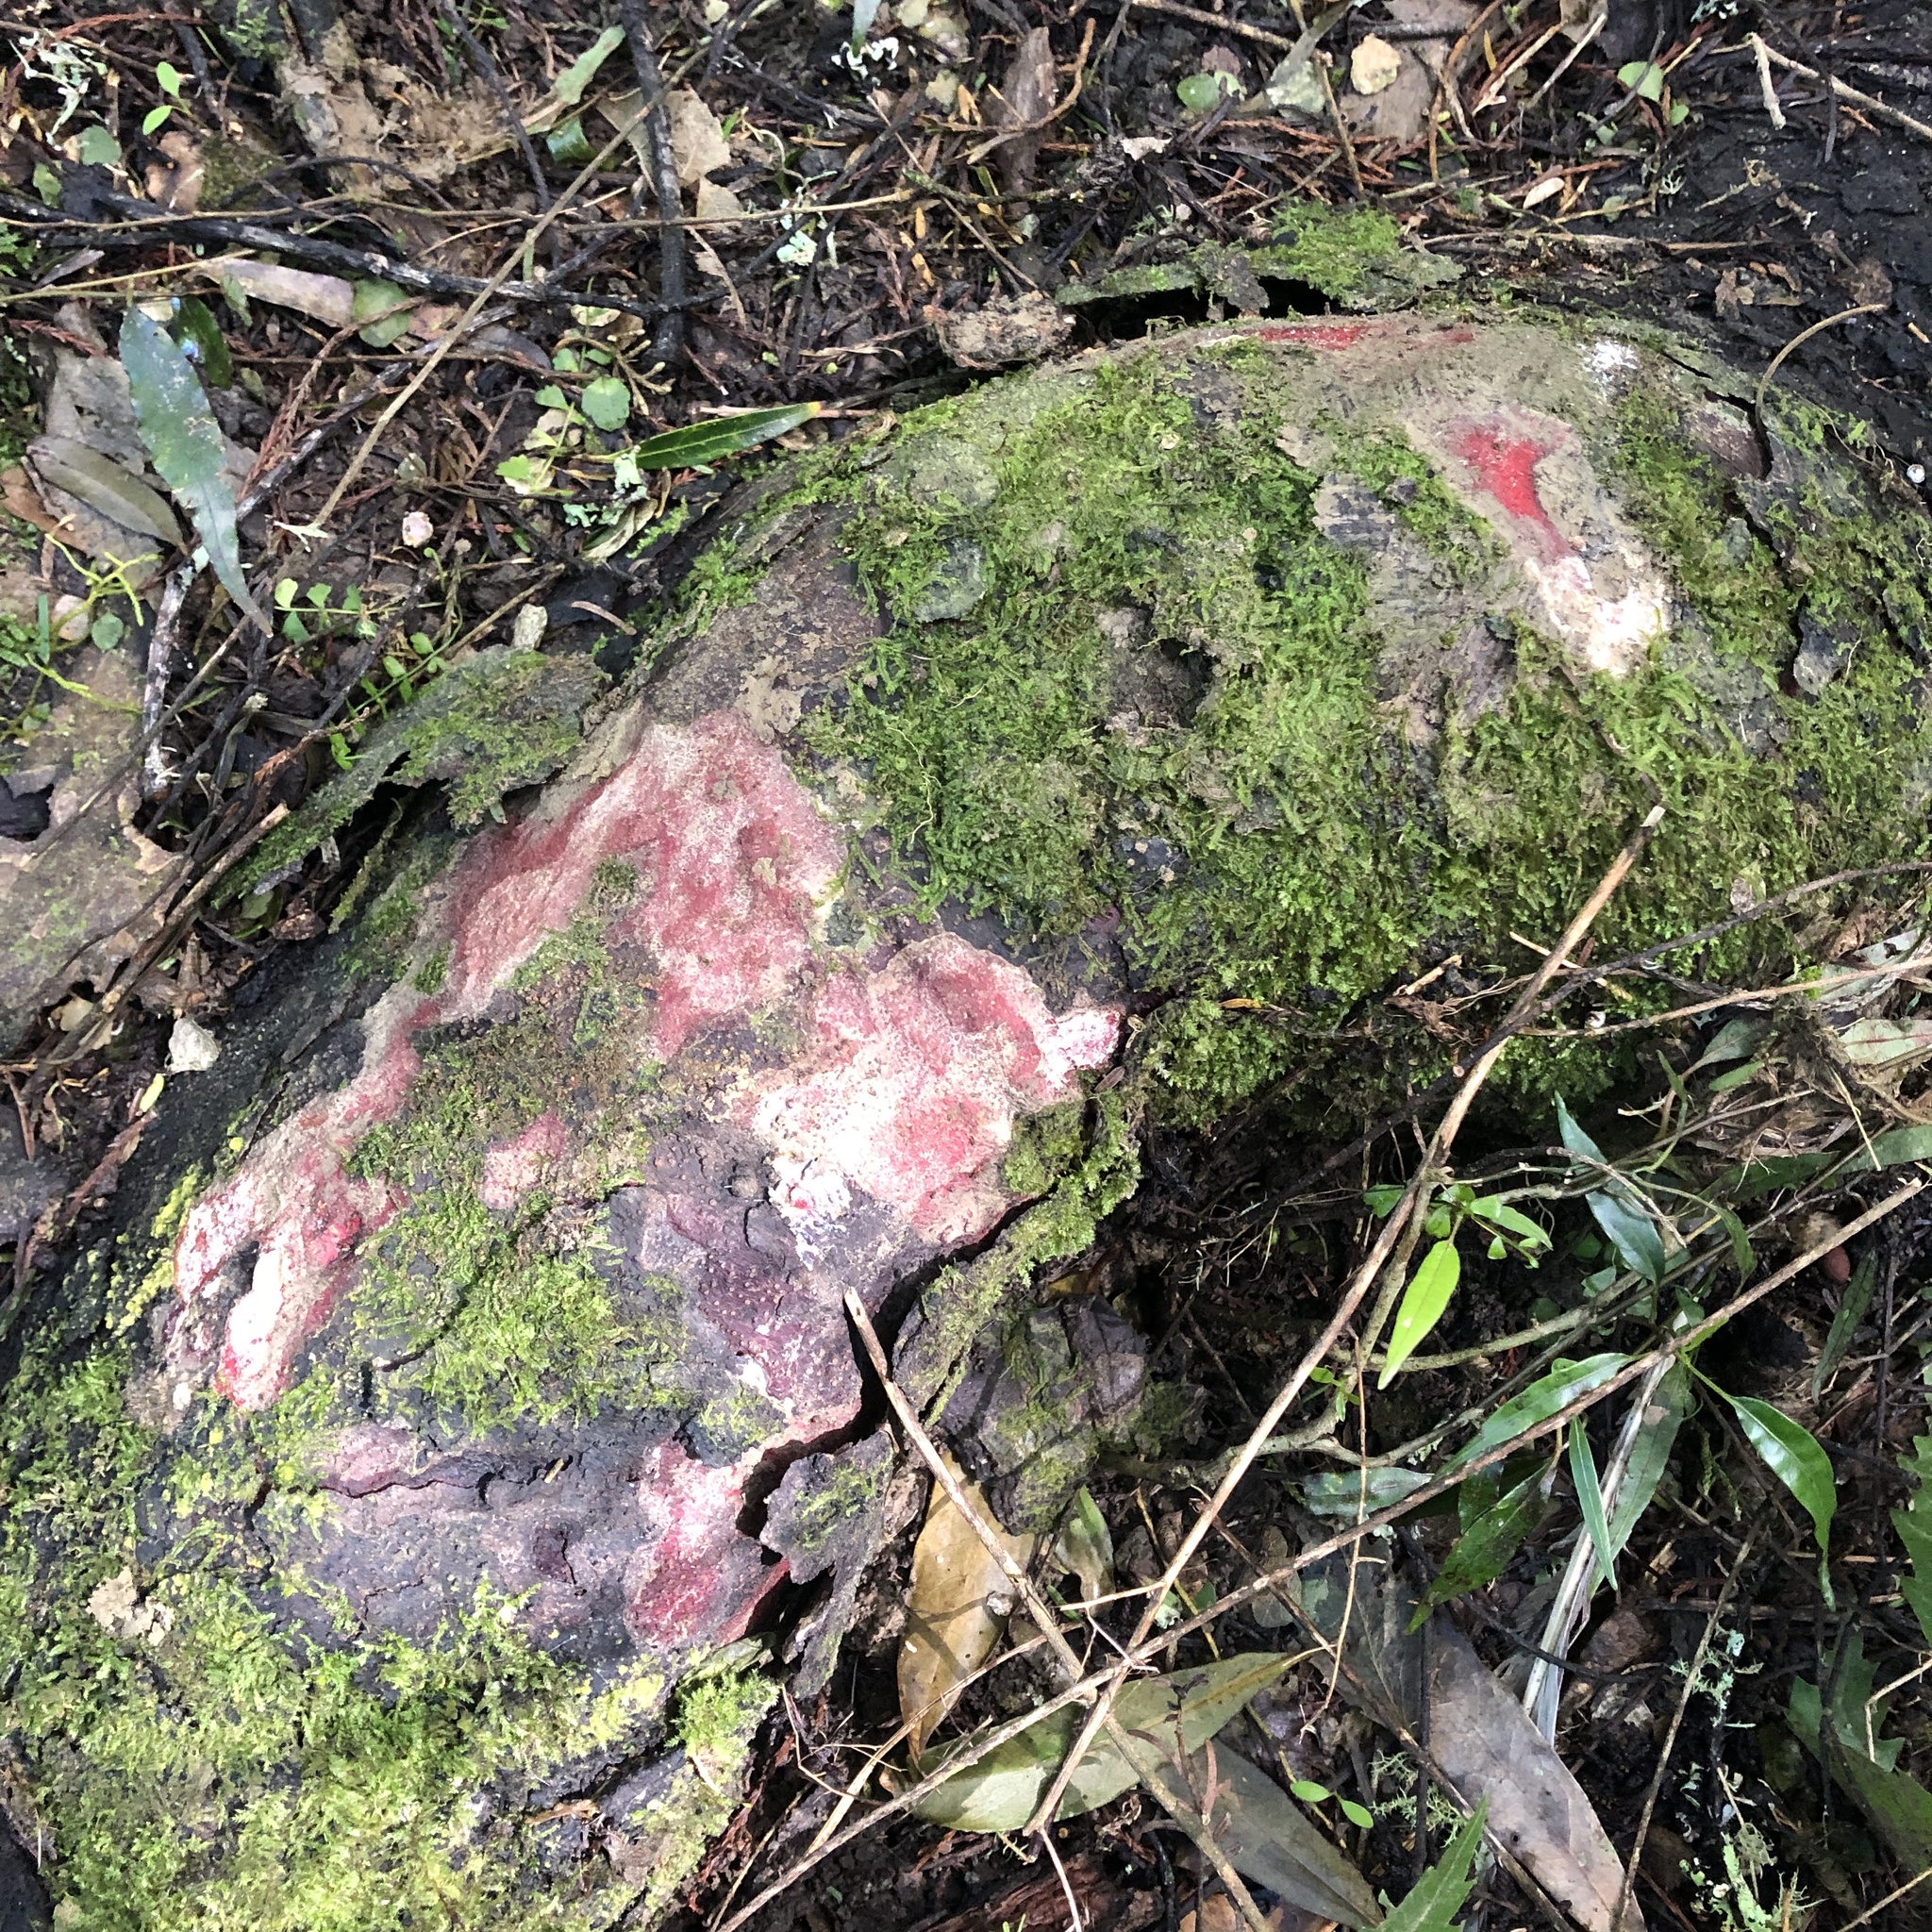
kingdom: Plantae
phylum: Tracheophyta
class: Pinopsida
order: Pinales
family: Podocarpaceae
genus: Prumnopitys
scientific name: Prumnopitys taxifolia
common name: Matai
